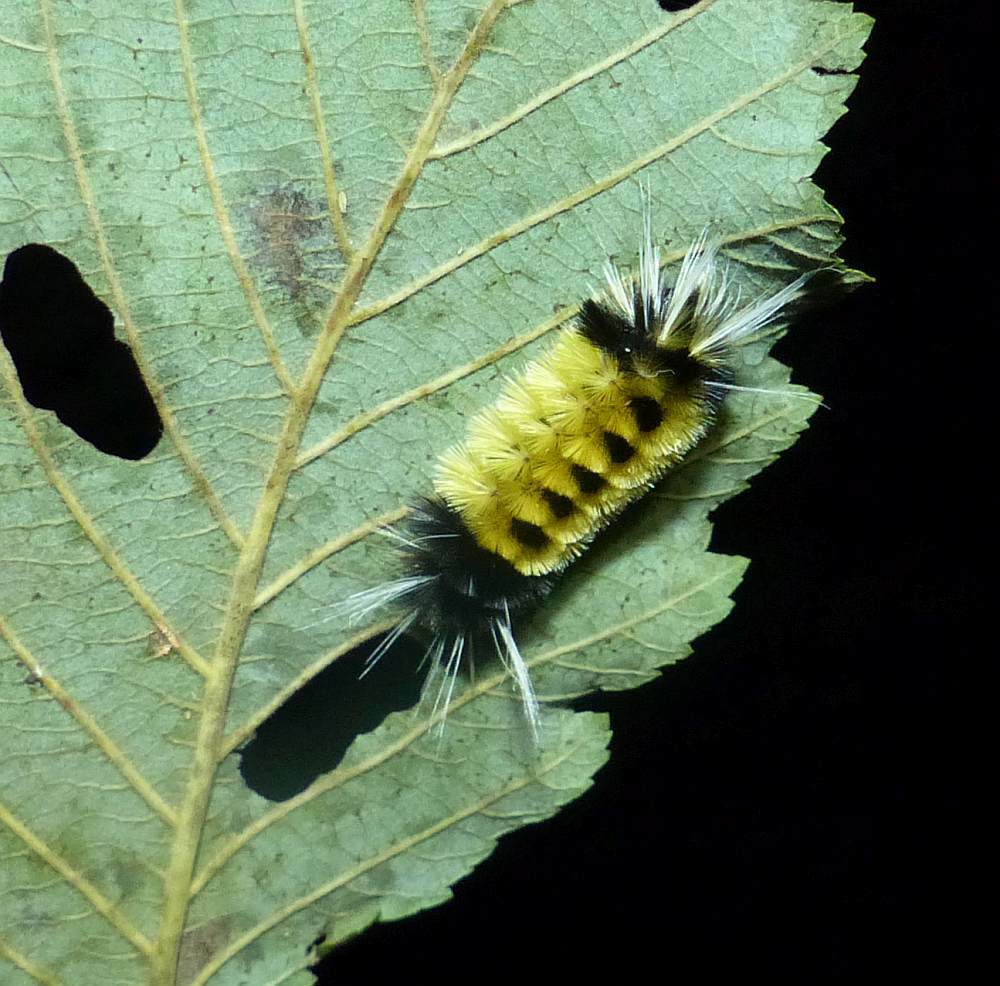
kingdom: Animalia
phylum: Arthropoda
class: Insecta
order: Lepidoptera
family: Erebidae
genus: Lophocampa
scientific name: Lophocampa maculata
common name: Spotted tussock moth
